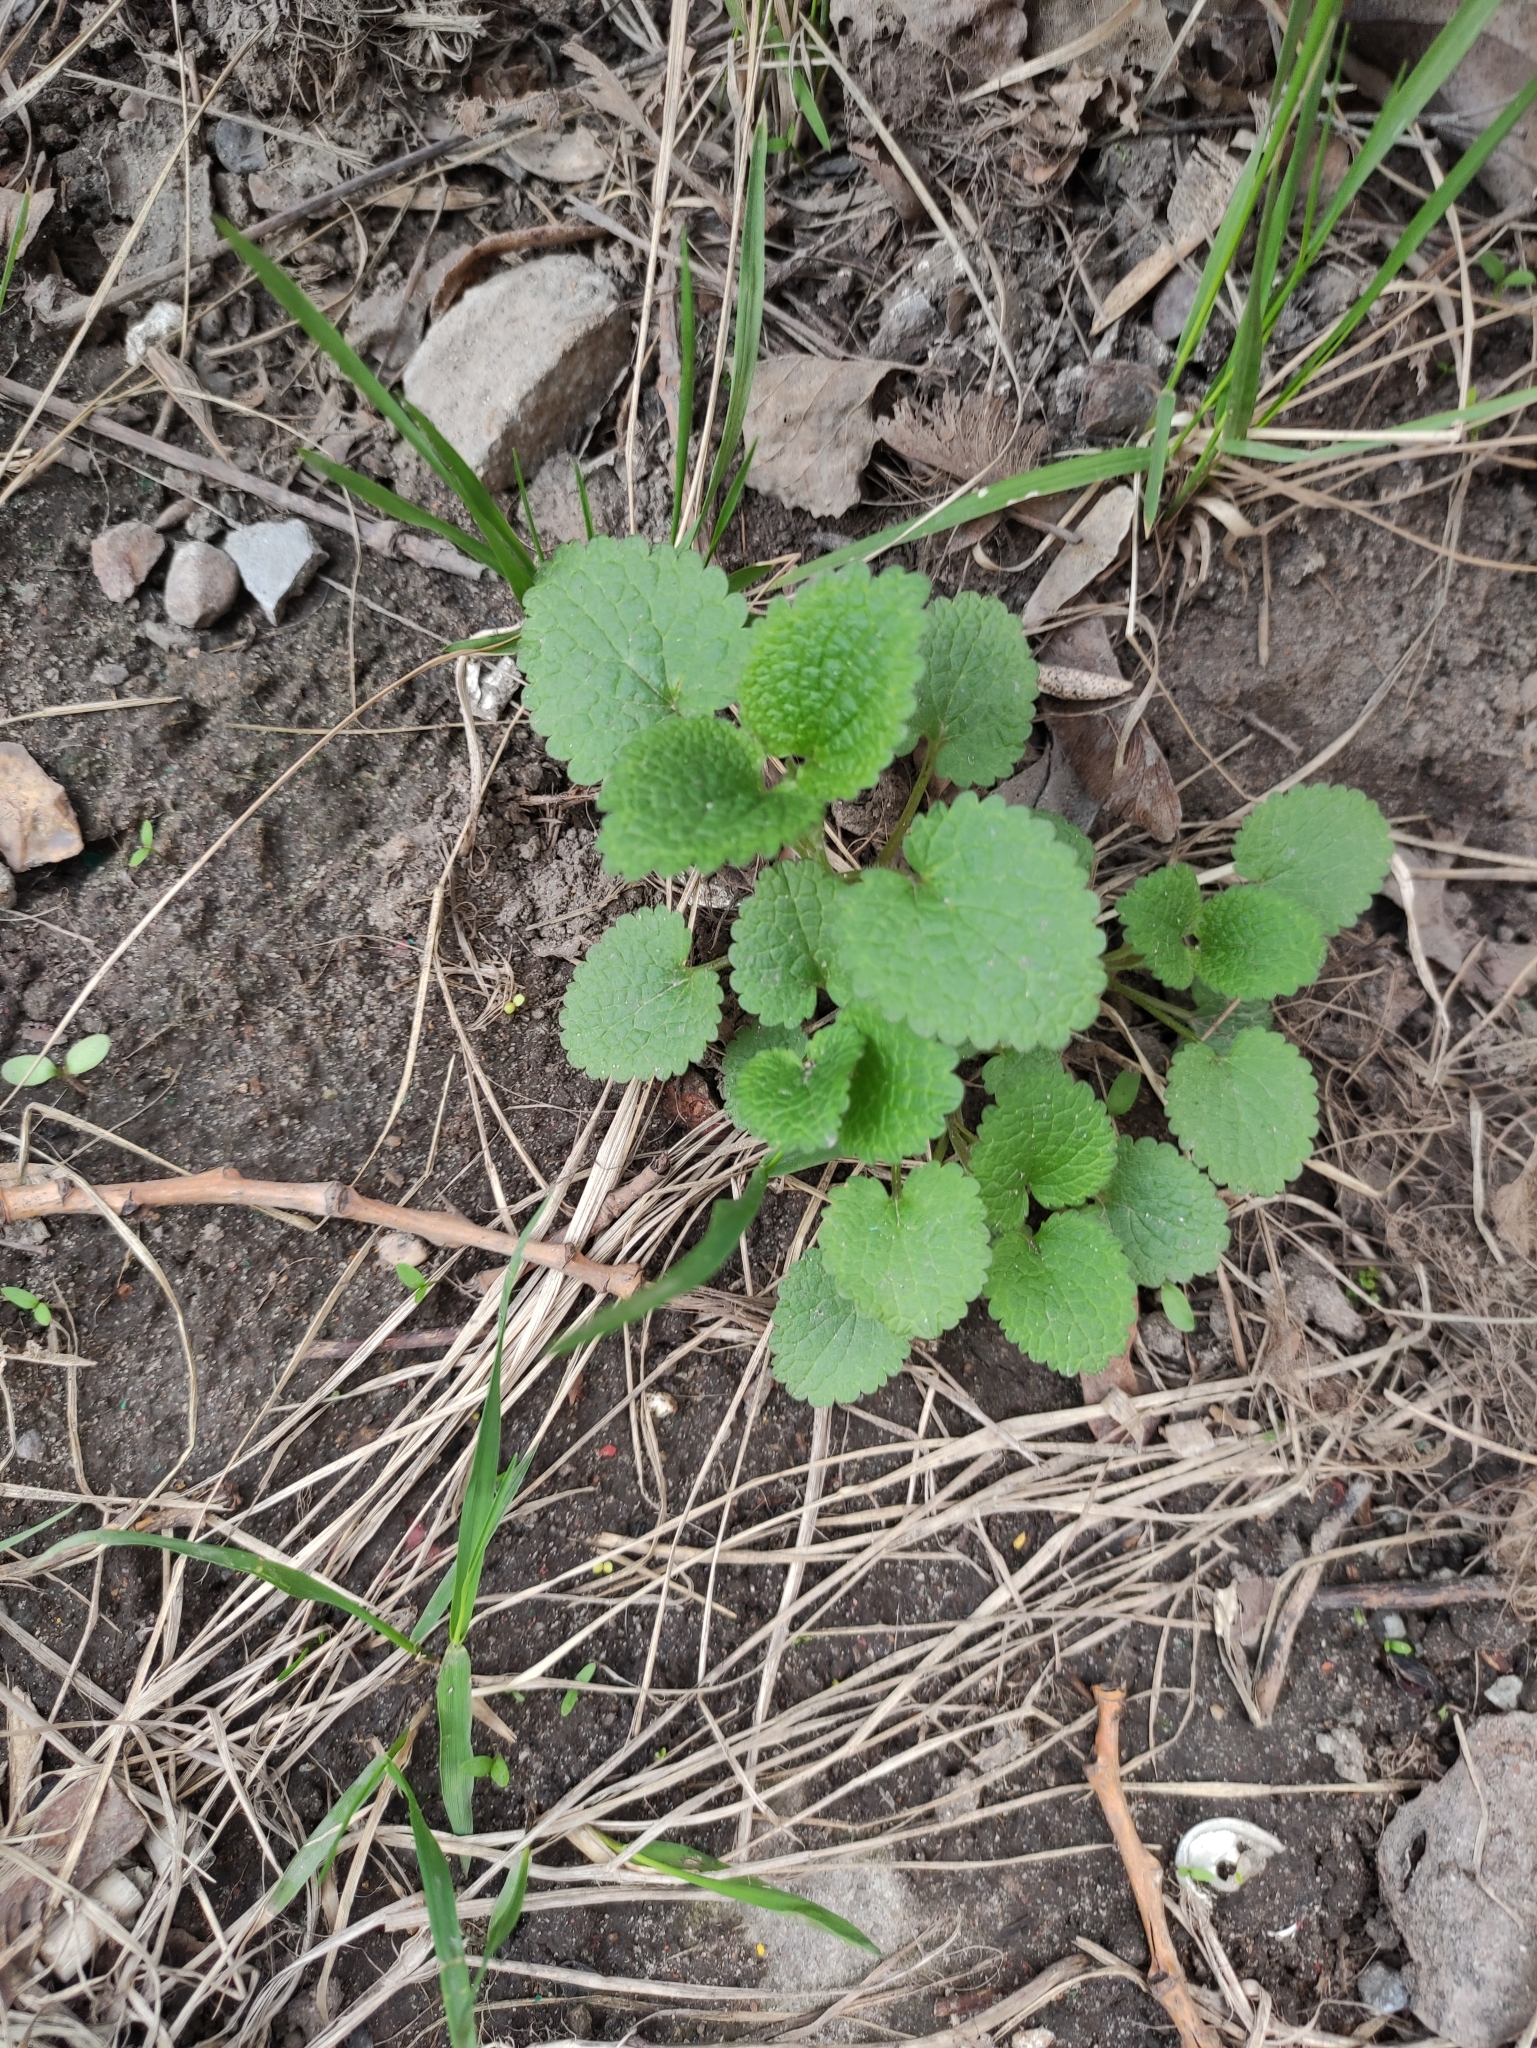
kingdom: Plantae
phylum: Tracheophyta
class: Magnoliopsida
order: Lamiales
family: Lamiaceae
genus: Lamium
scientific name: Lamium album
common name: White dead-nettle
